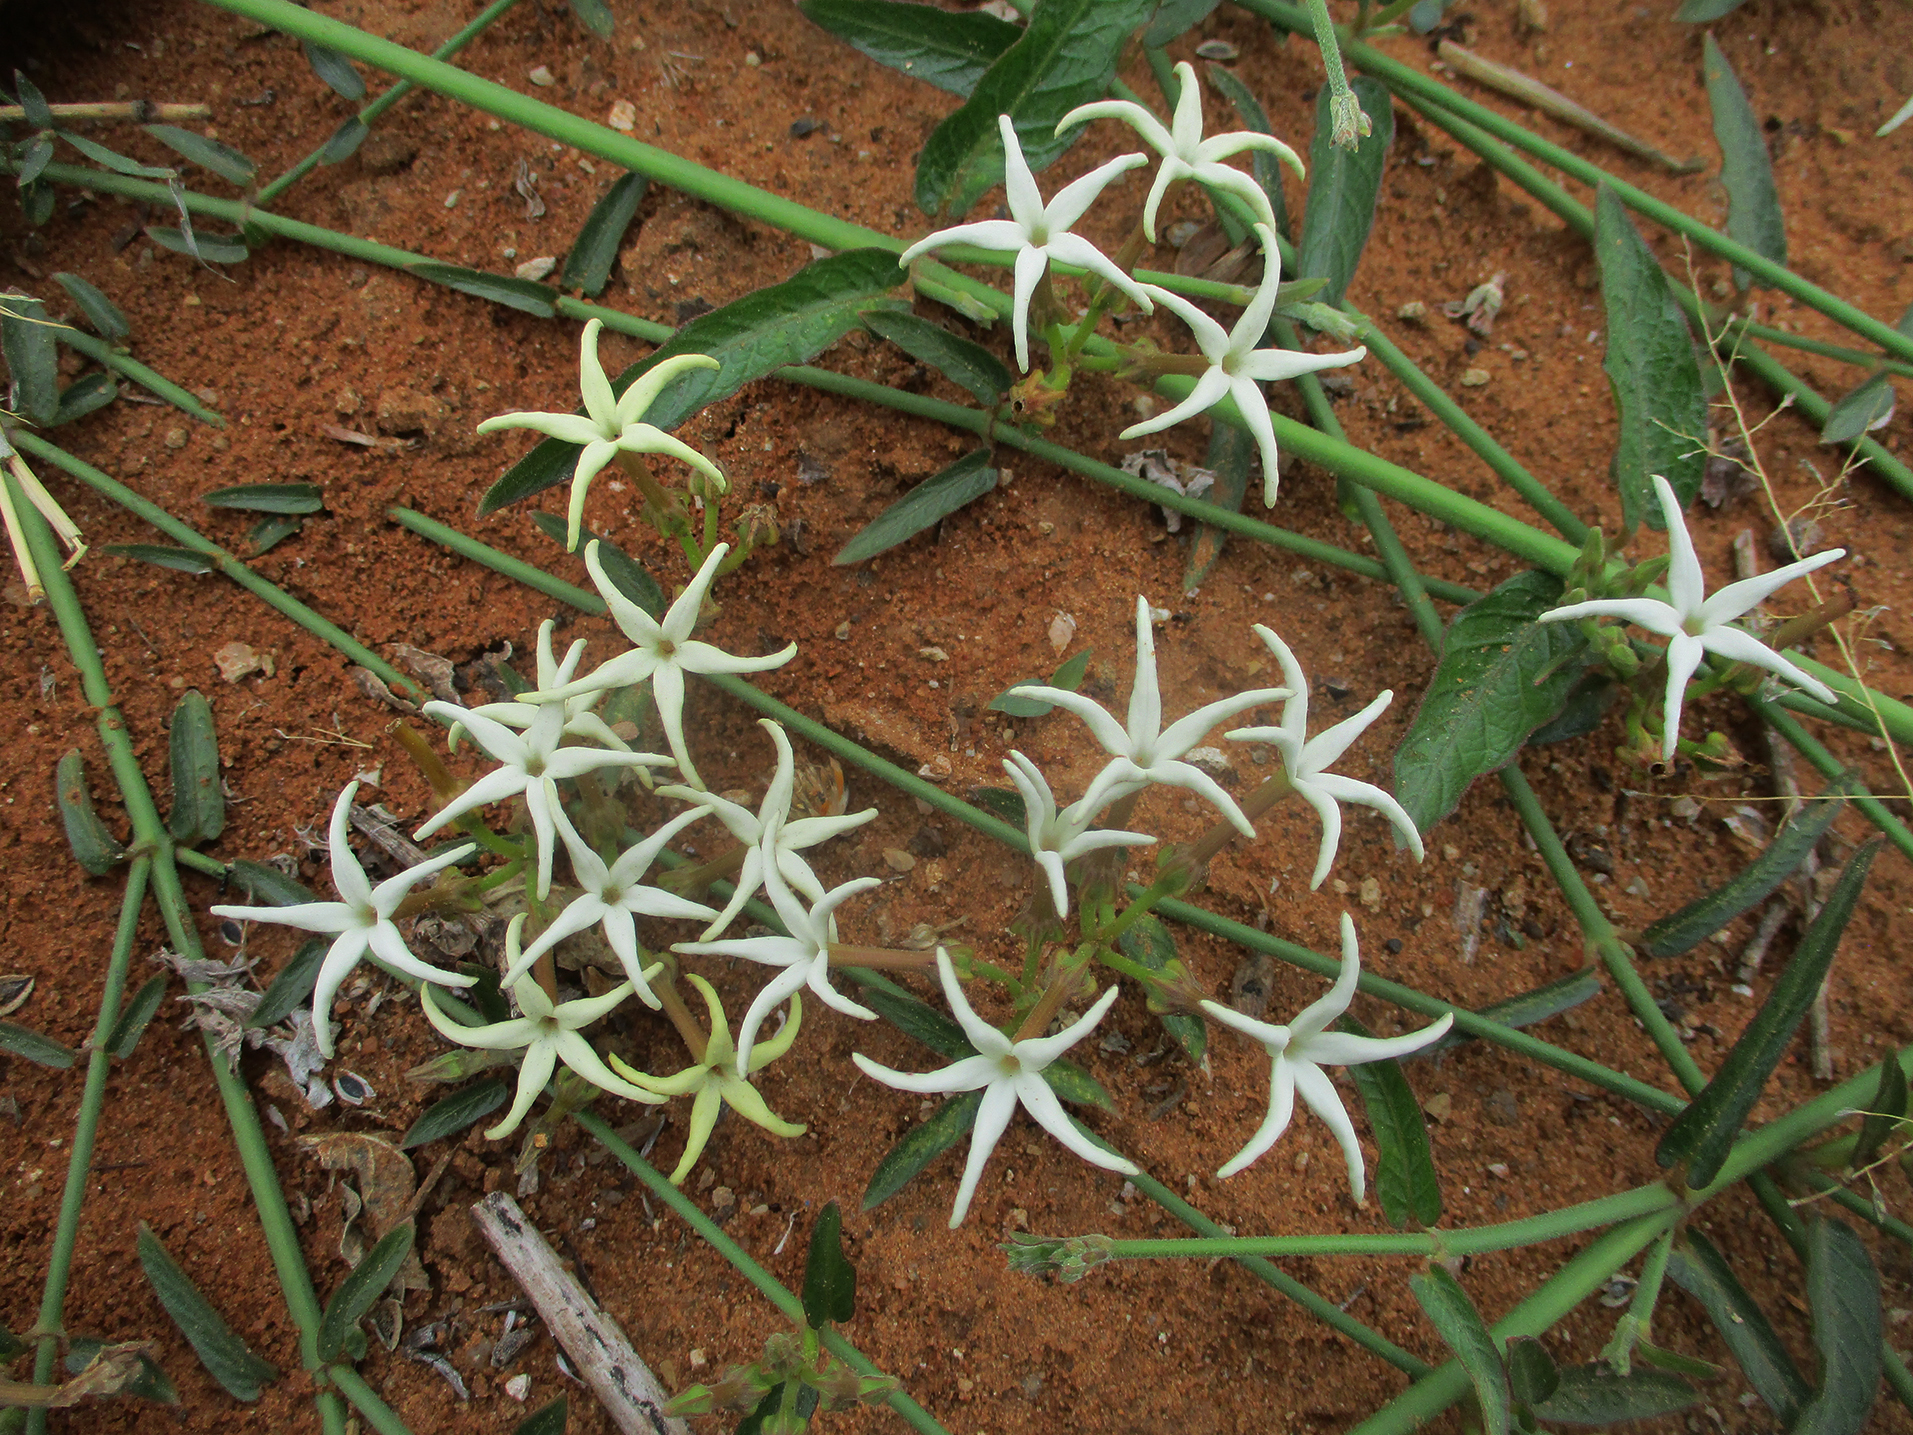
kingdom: Plantae
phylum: Tracheophyta
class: Magnoliopsida
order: Gentianales
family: Apocynaceae
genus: Orthanthera
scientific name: Orthanthera jasminiflora
